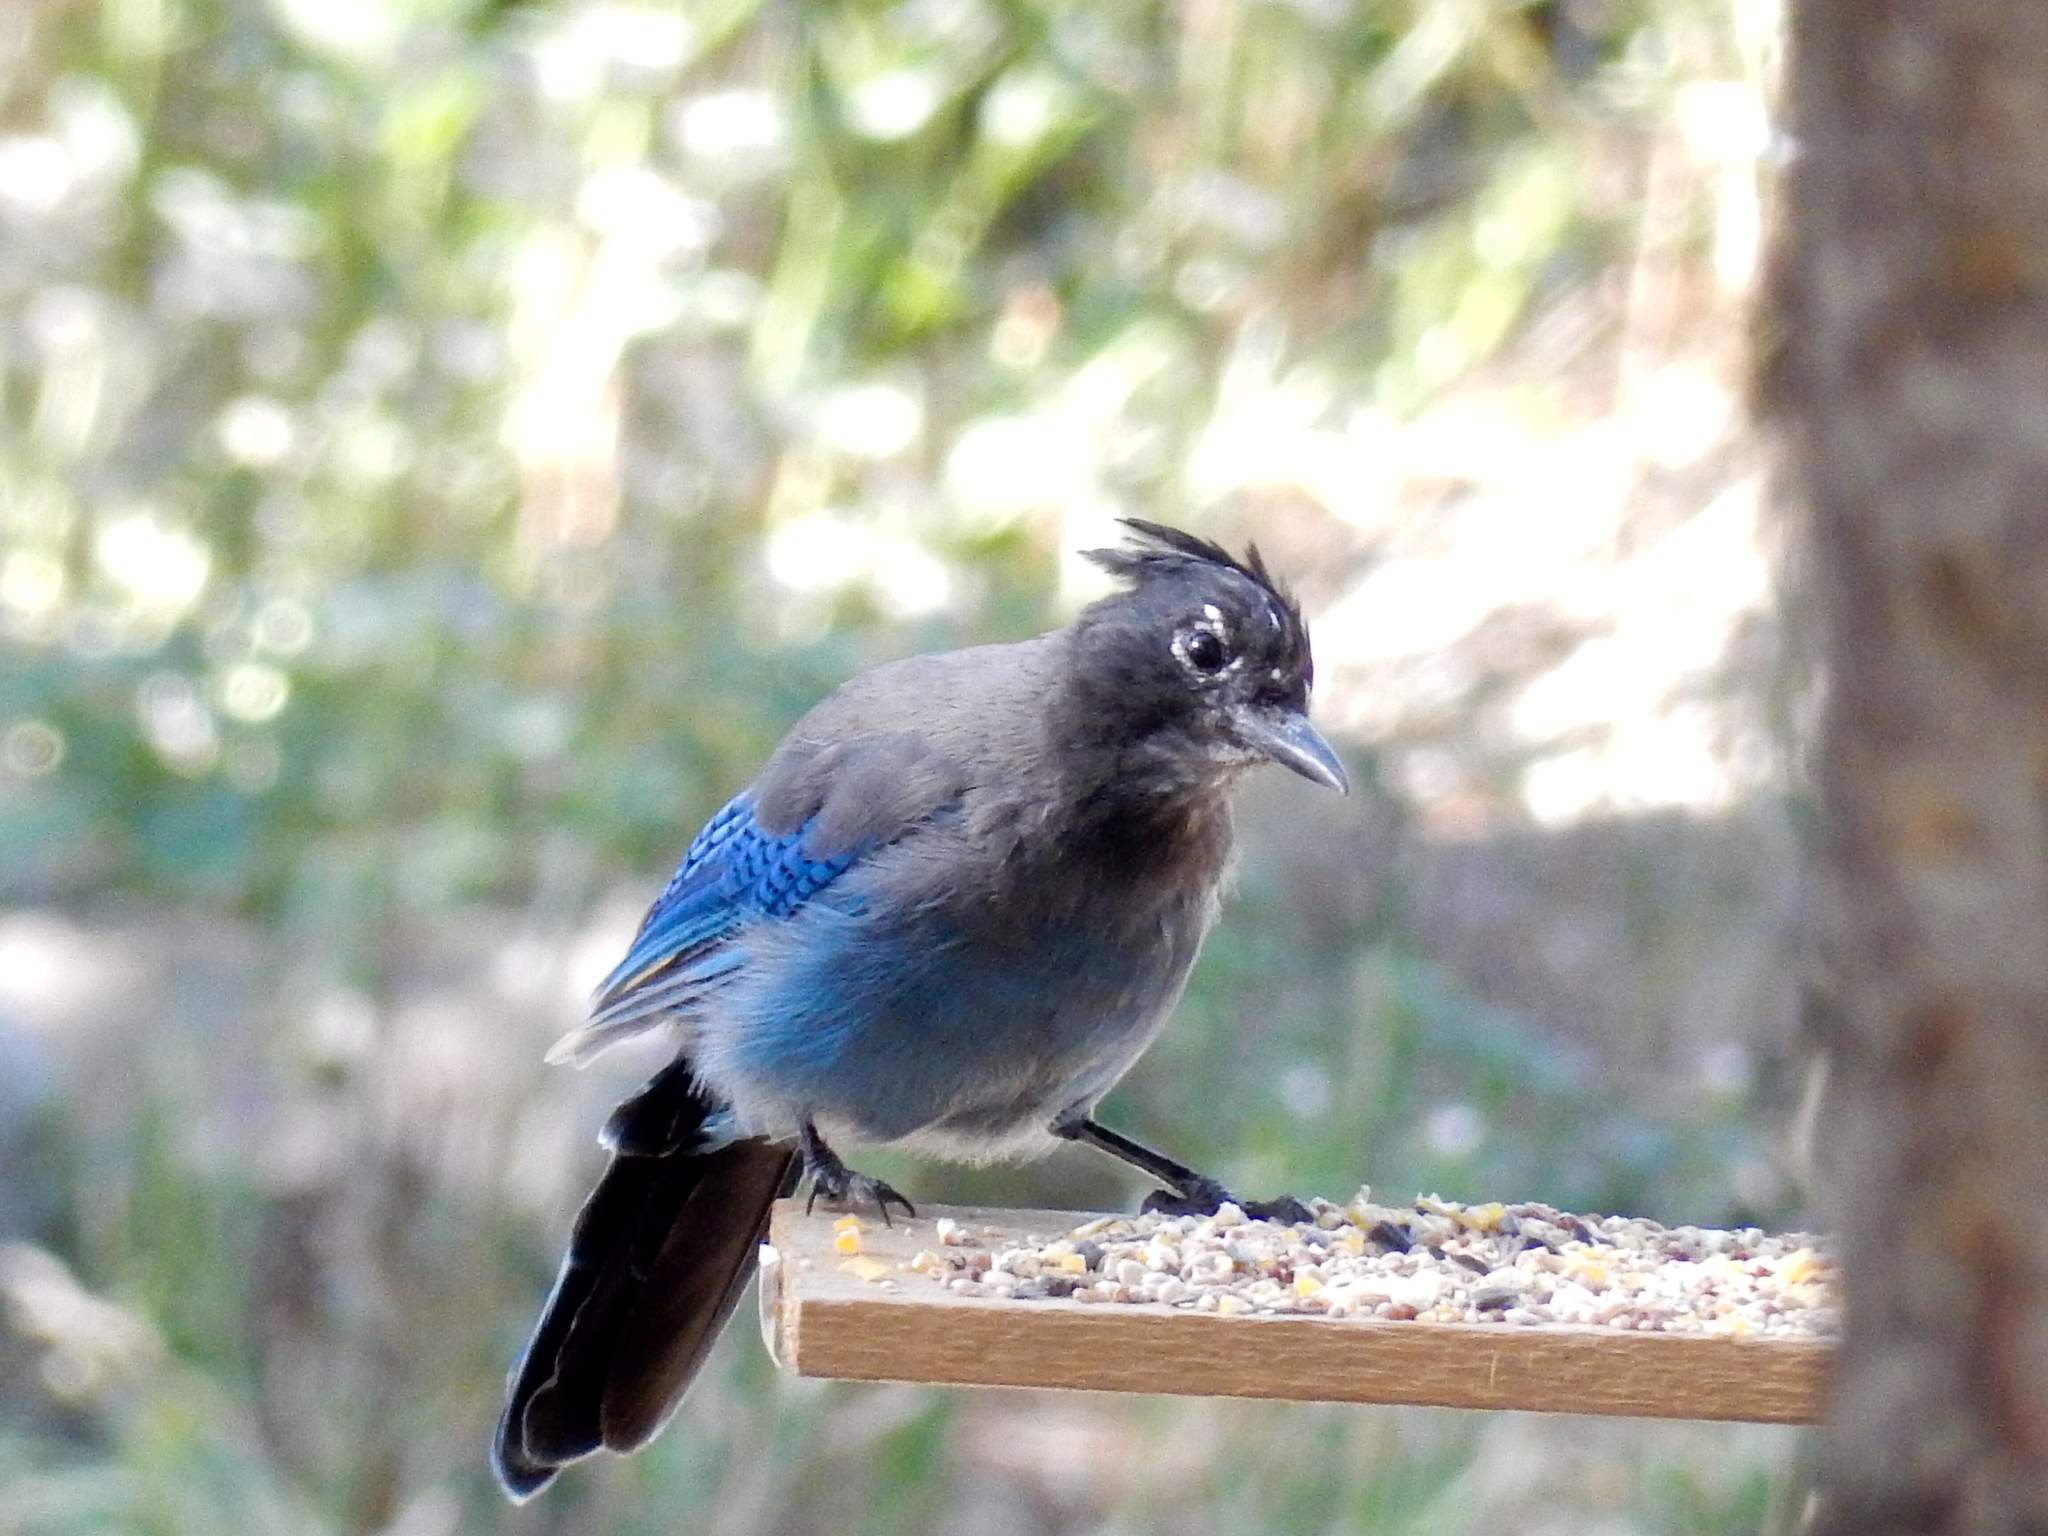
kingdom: Animalia
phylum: Chordata
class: Aves
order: Passeriformes
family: Corvidae
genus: Cyanocitta
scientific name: Cyanocitta stelleri
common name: Steller's jay
